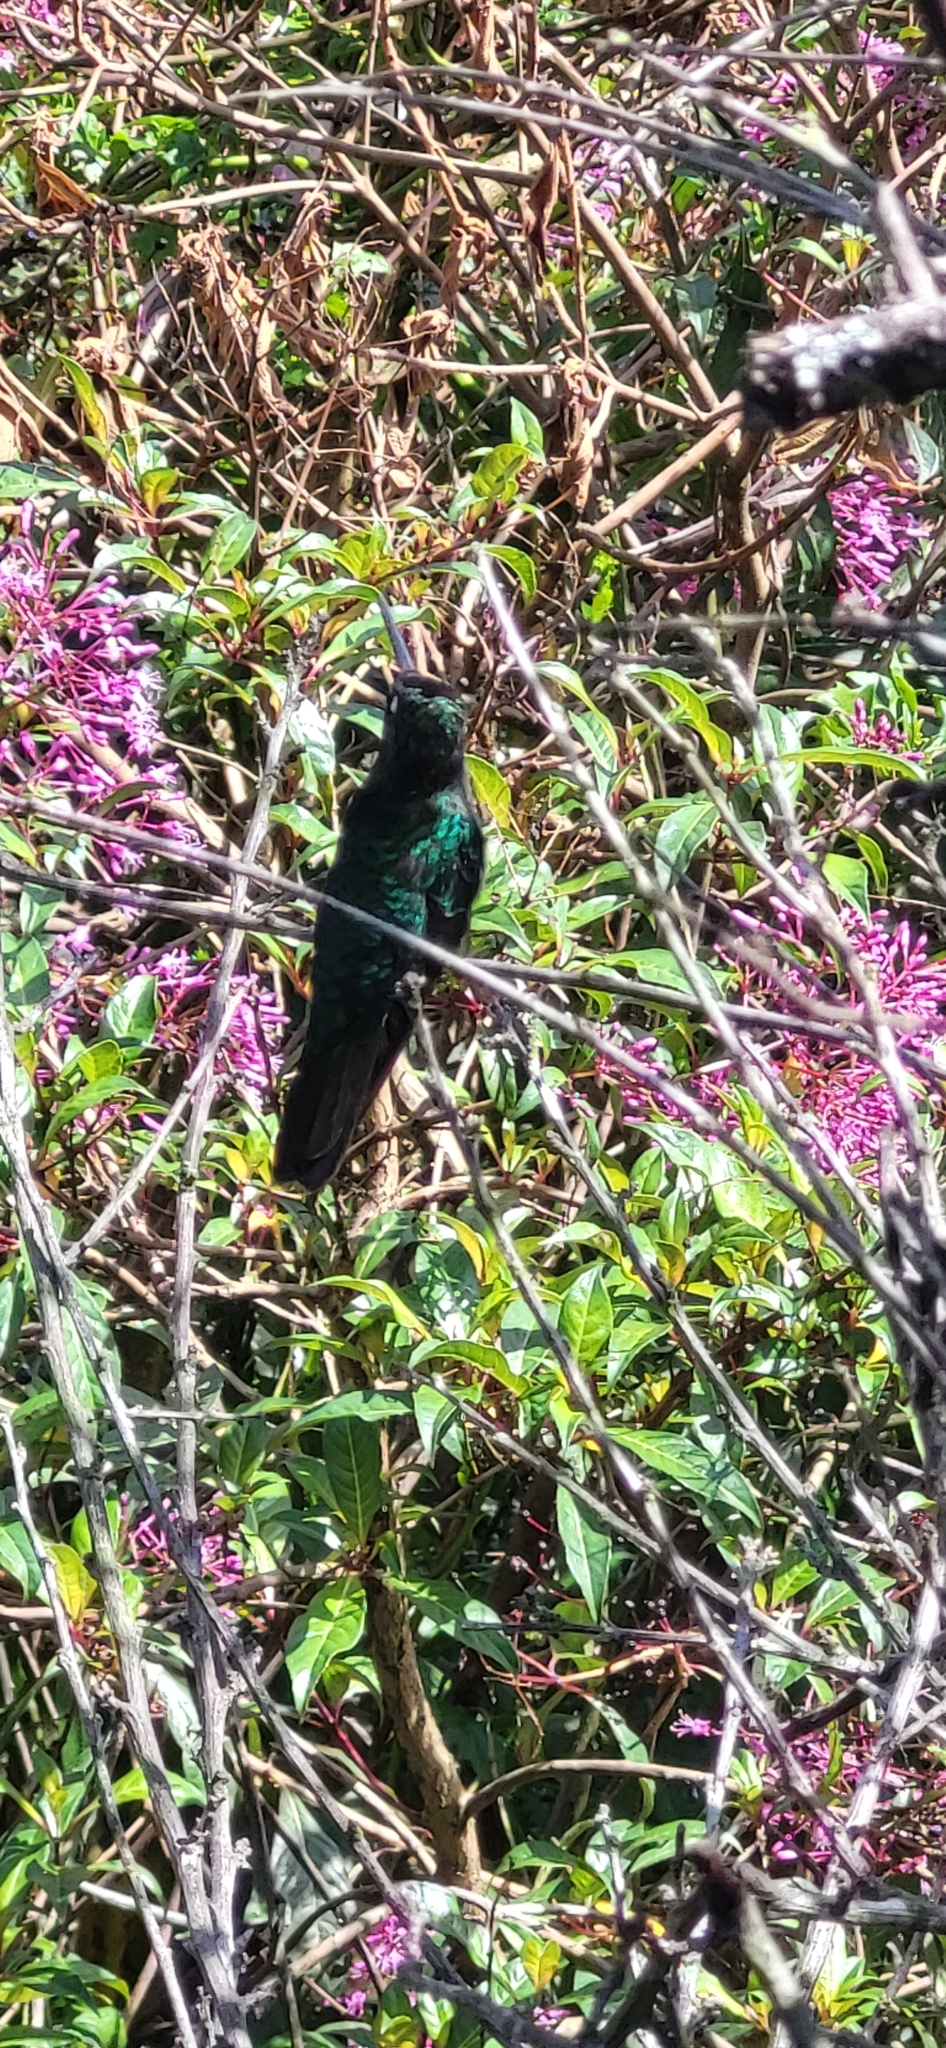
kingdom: Animalia
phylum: Chordata
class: Aves
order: Apodiformes
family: Trochilidae
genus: Eugenes
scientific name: Eugenes spectabilis
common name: Talamanca hummingbird
